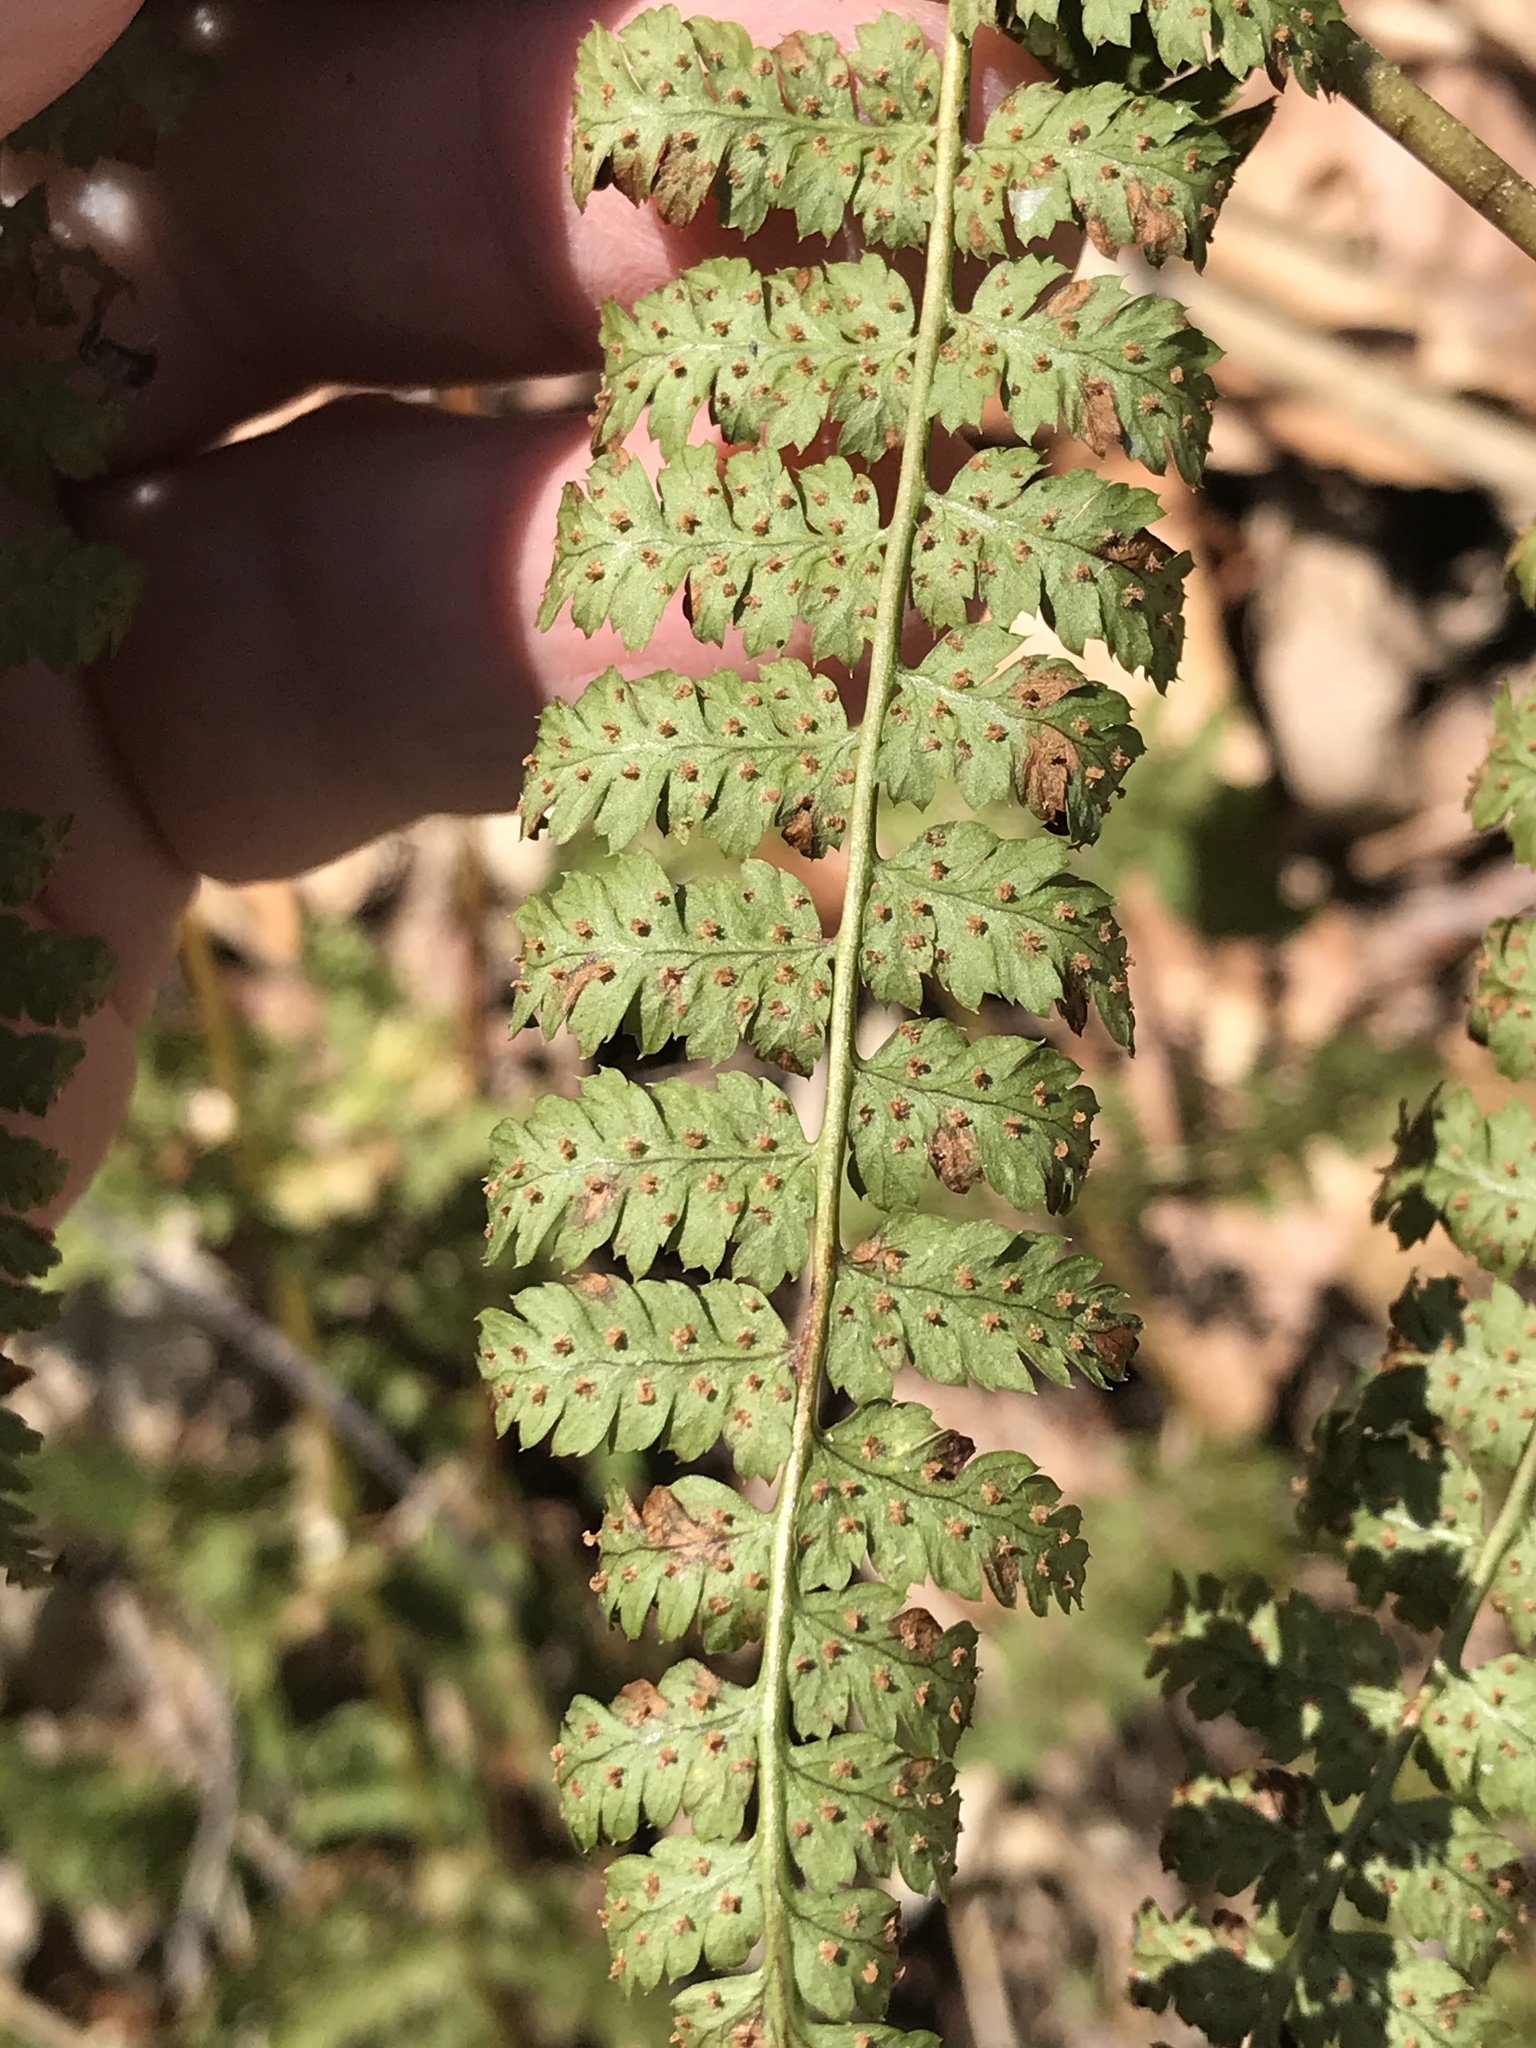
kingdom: Plantae
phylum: Tracheophyta
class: Polypodiopsida
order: Polypodiales
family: Dryopteridaceae
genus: Dryopteris
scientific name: Dryopteris intermedia
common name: Evergreen wood fern
